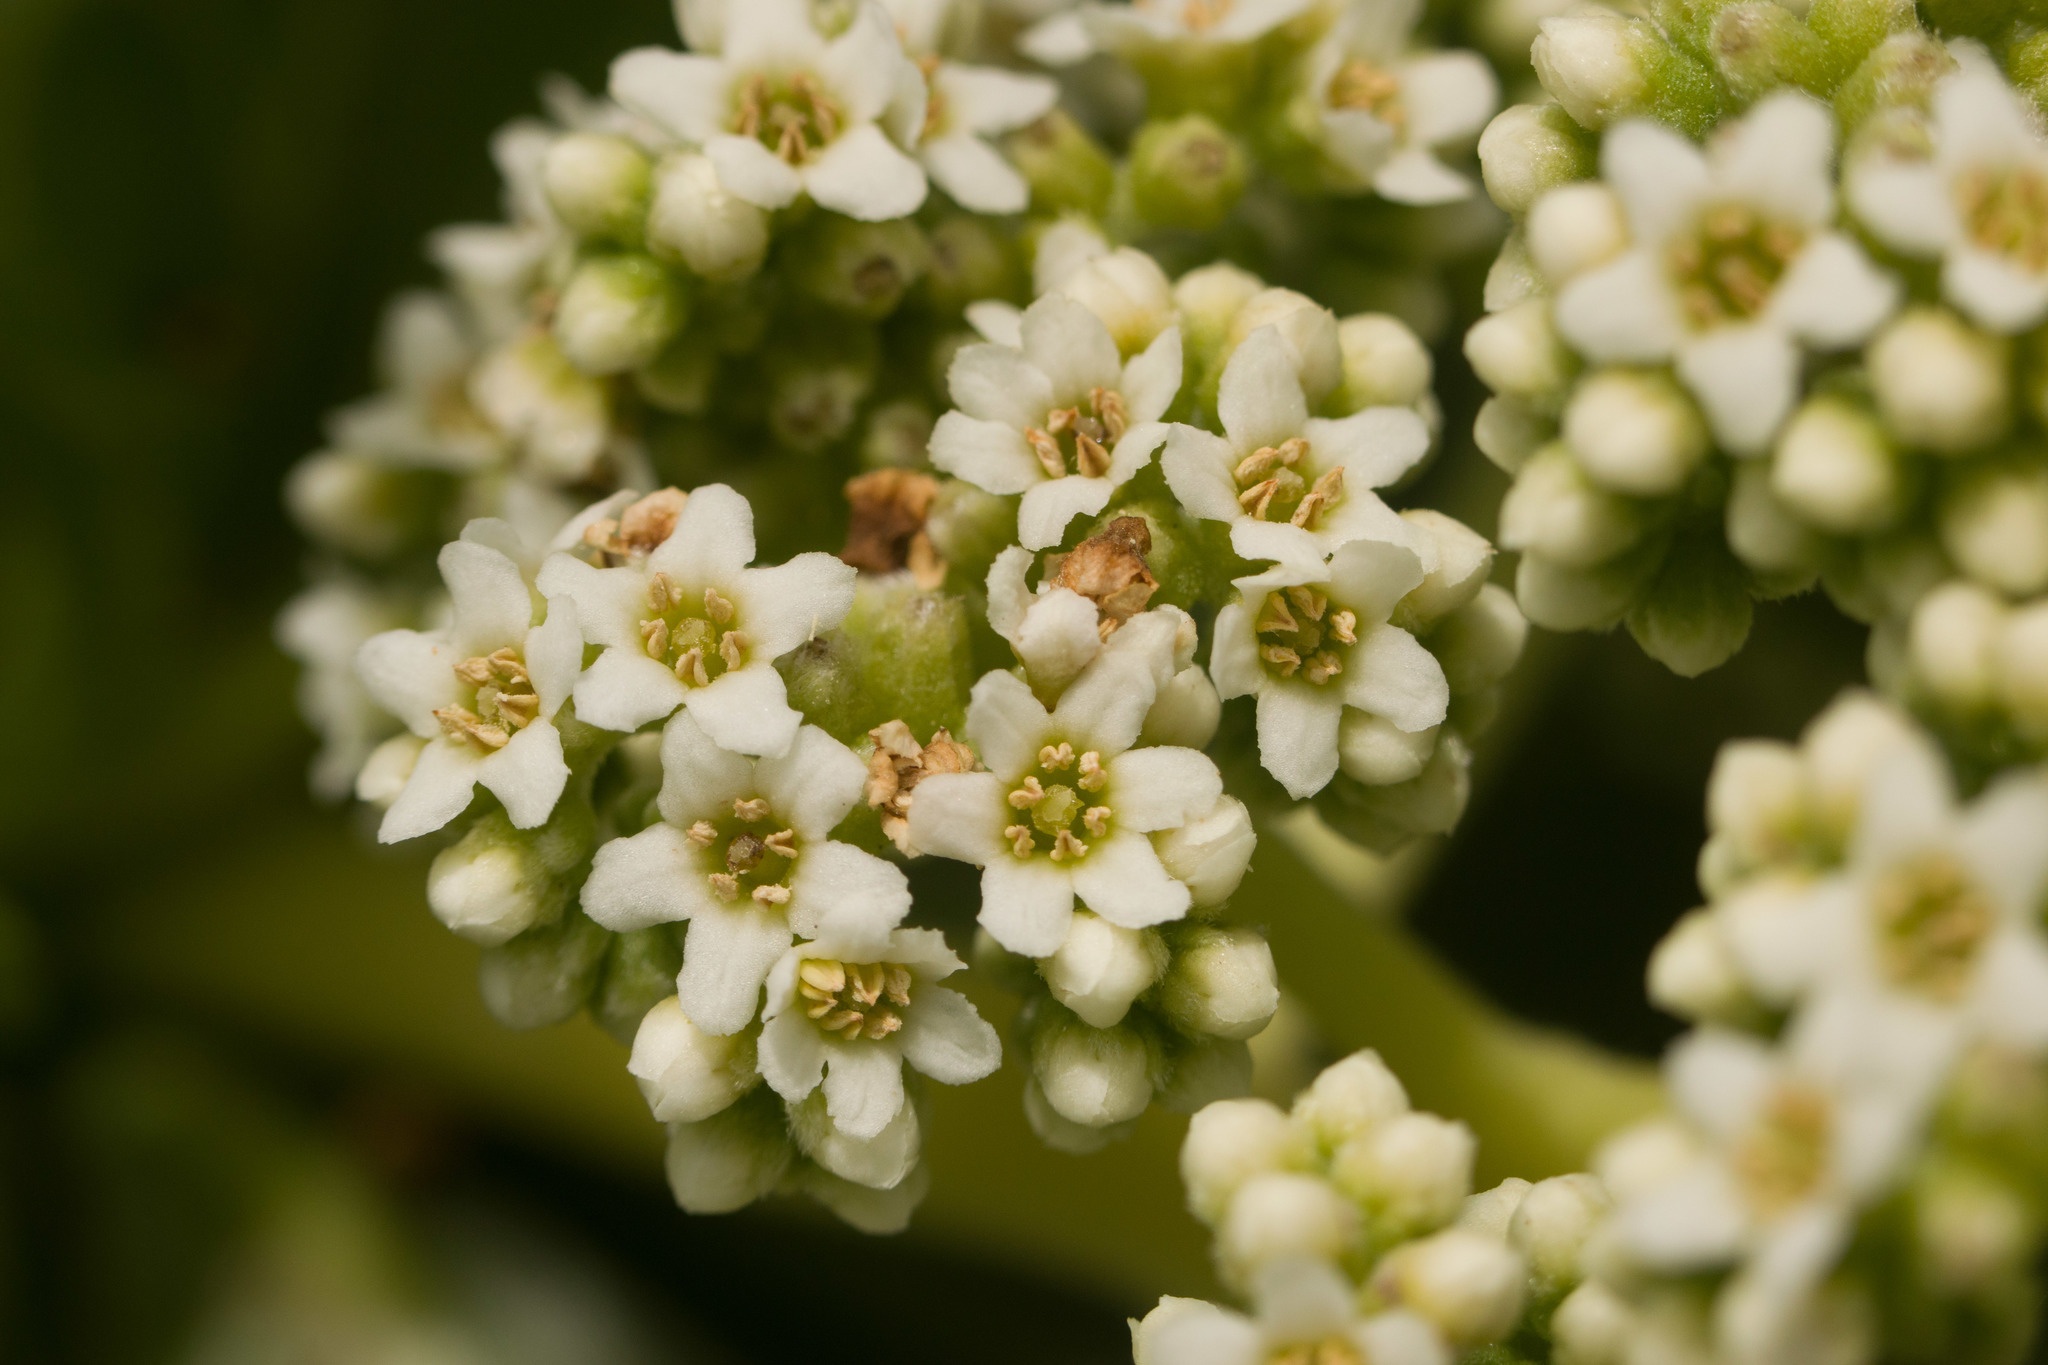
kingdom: Plantae
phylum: Tracheophyta
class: Magnoliopsida
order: Boraginales
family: Heliotropiaceae
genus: Heliotropium
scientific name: Heliotropium velutinum
